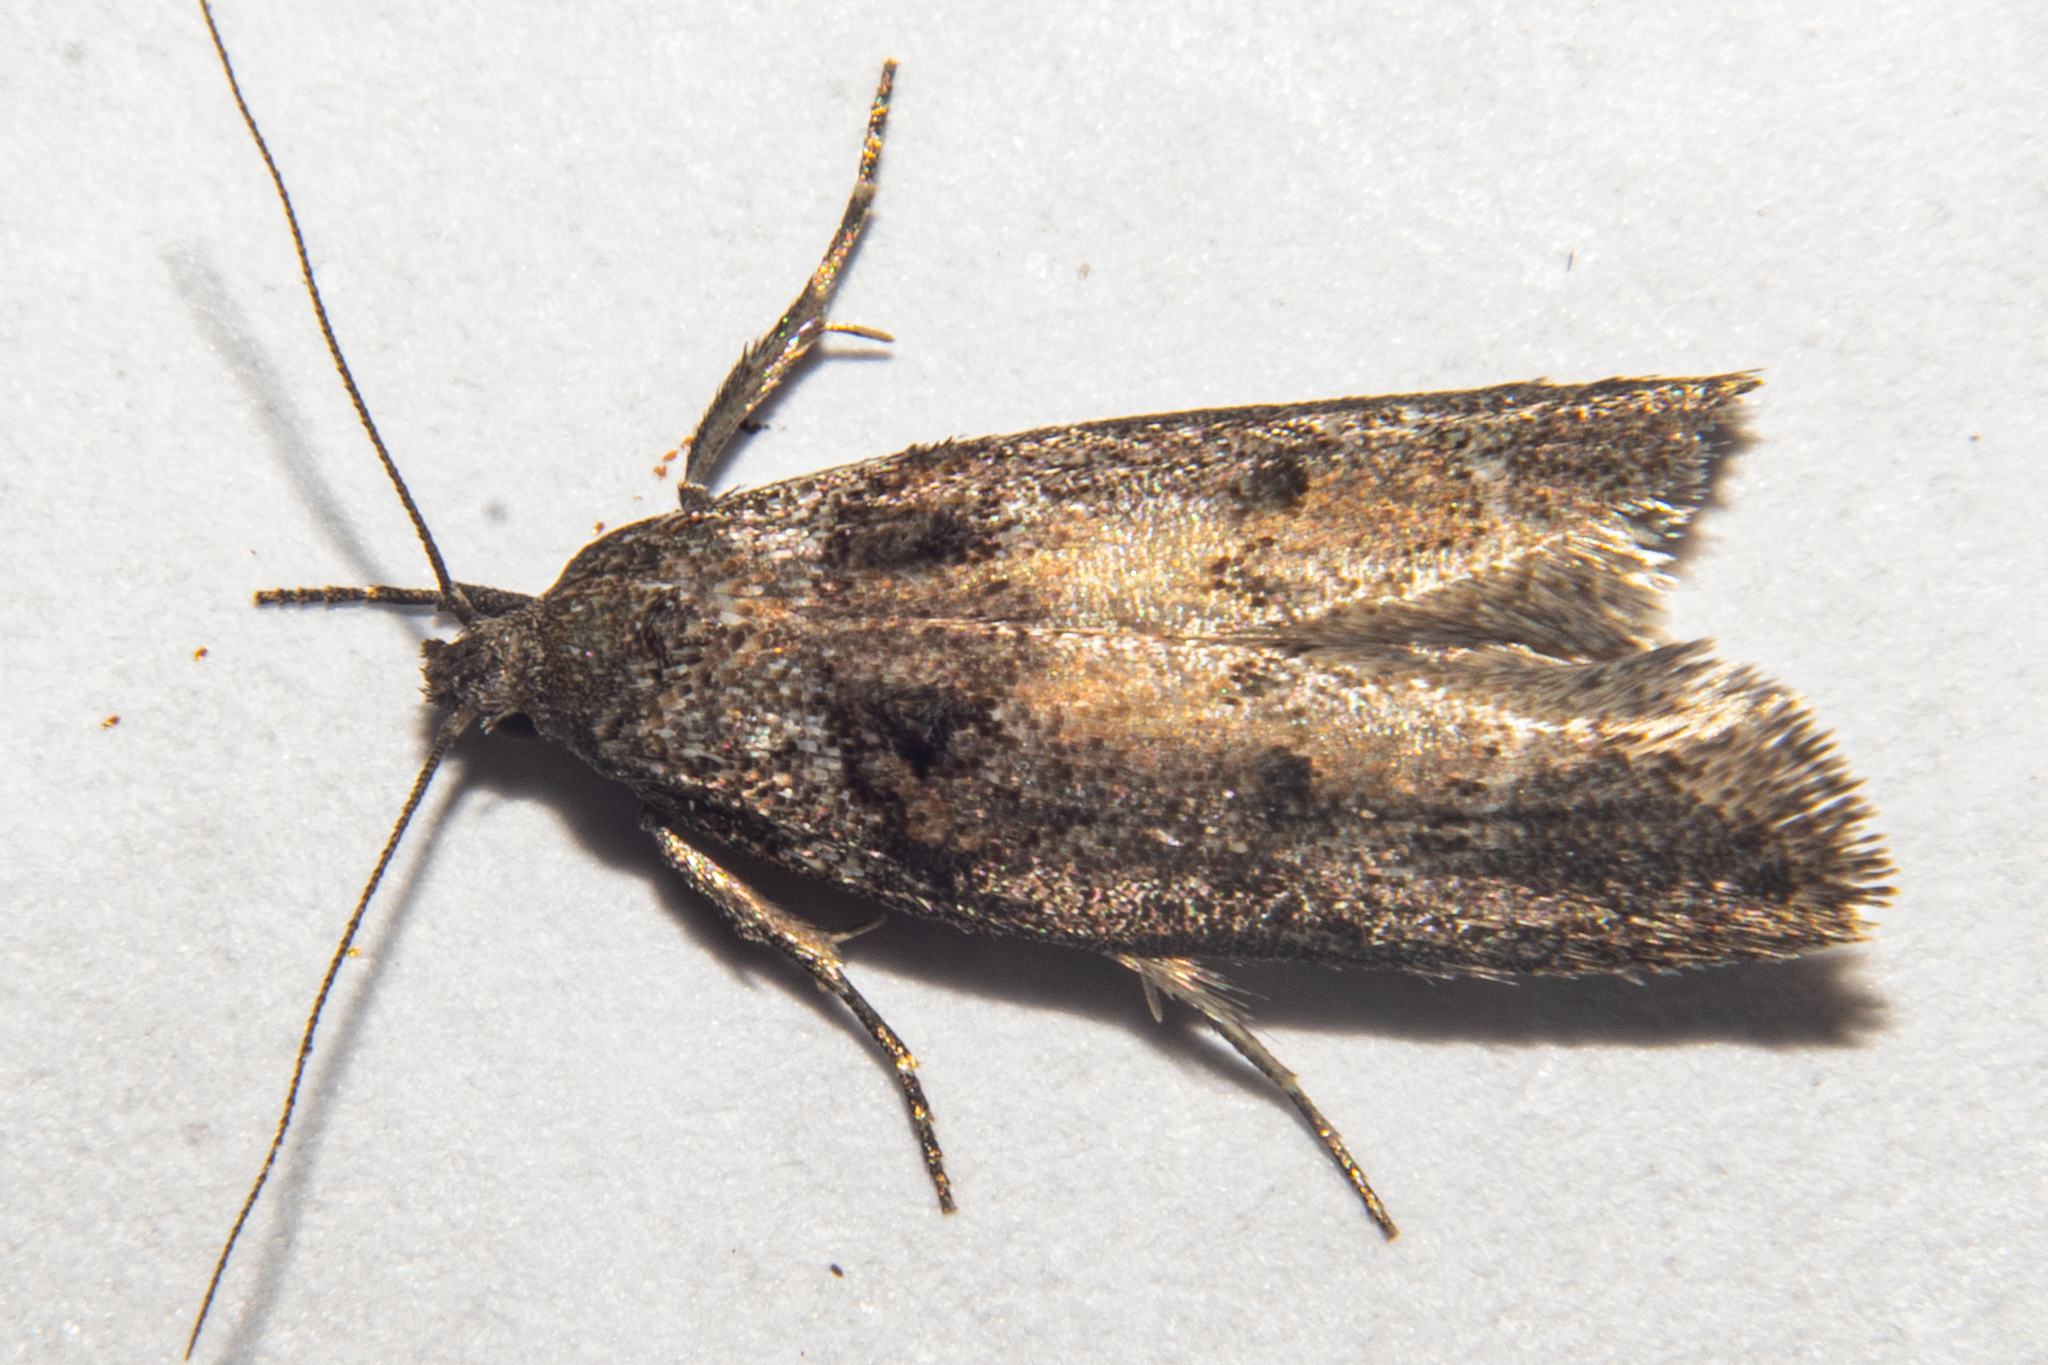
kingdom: Animalia
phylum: Arthropoda
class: Insecta
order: Lepidoptera
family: Oecophoridae
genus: Trachypepla
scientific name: Trachypepla conspicuella
